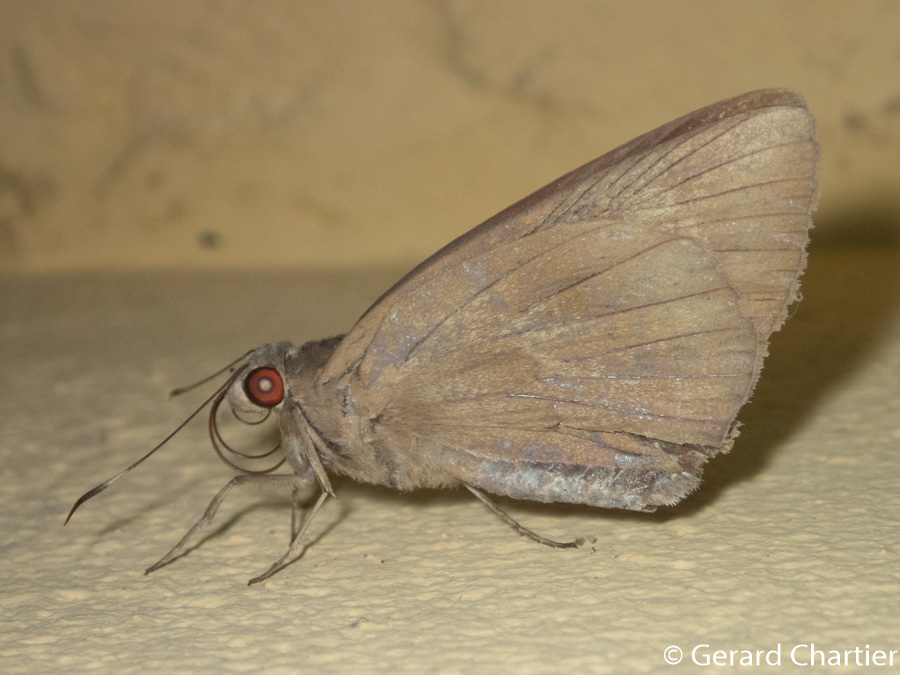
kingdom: Animalia
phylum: Arthropoda
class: Insecta
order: Lepidoptera
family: Hesperiidae
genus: Erionota
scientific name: Erionota torus
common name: Rounded palm-redeye
